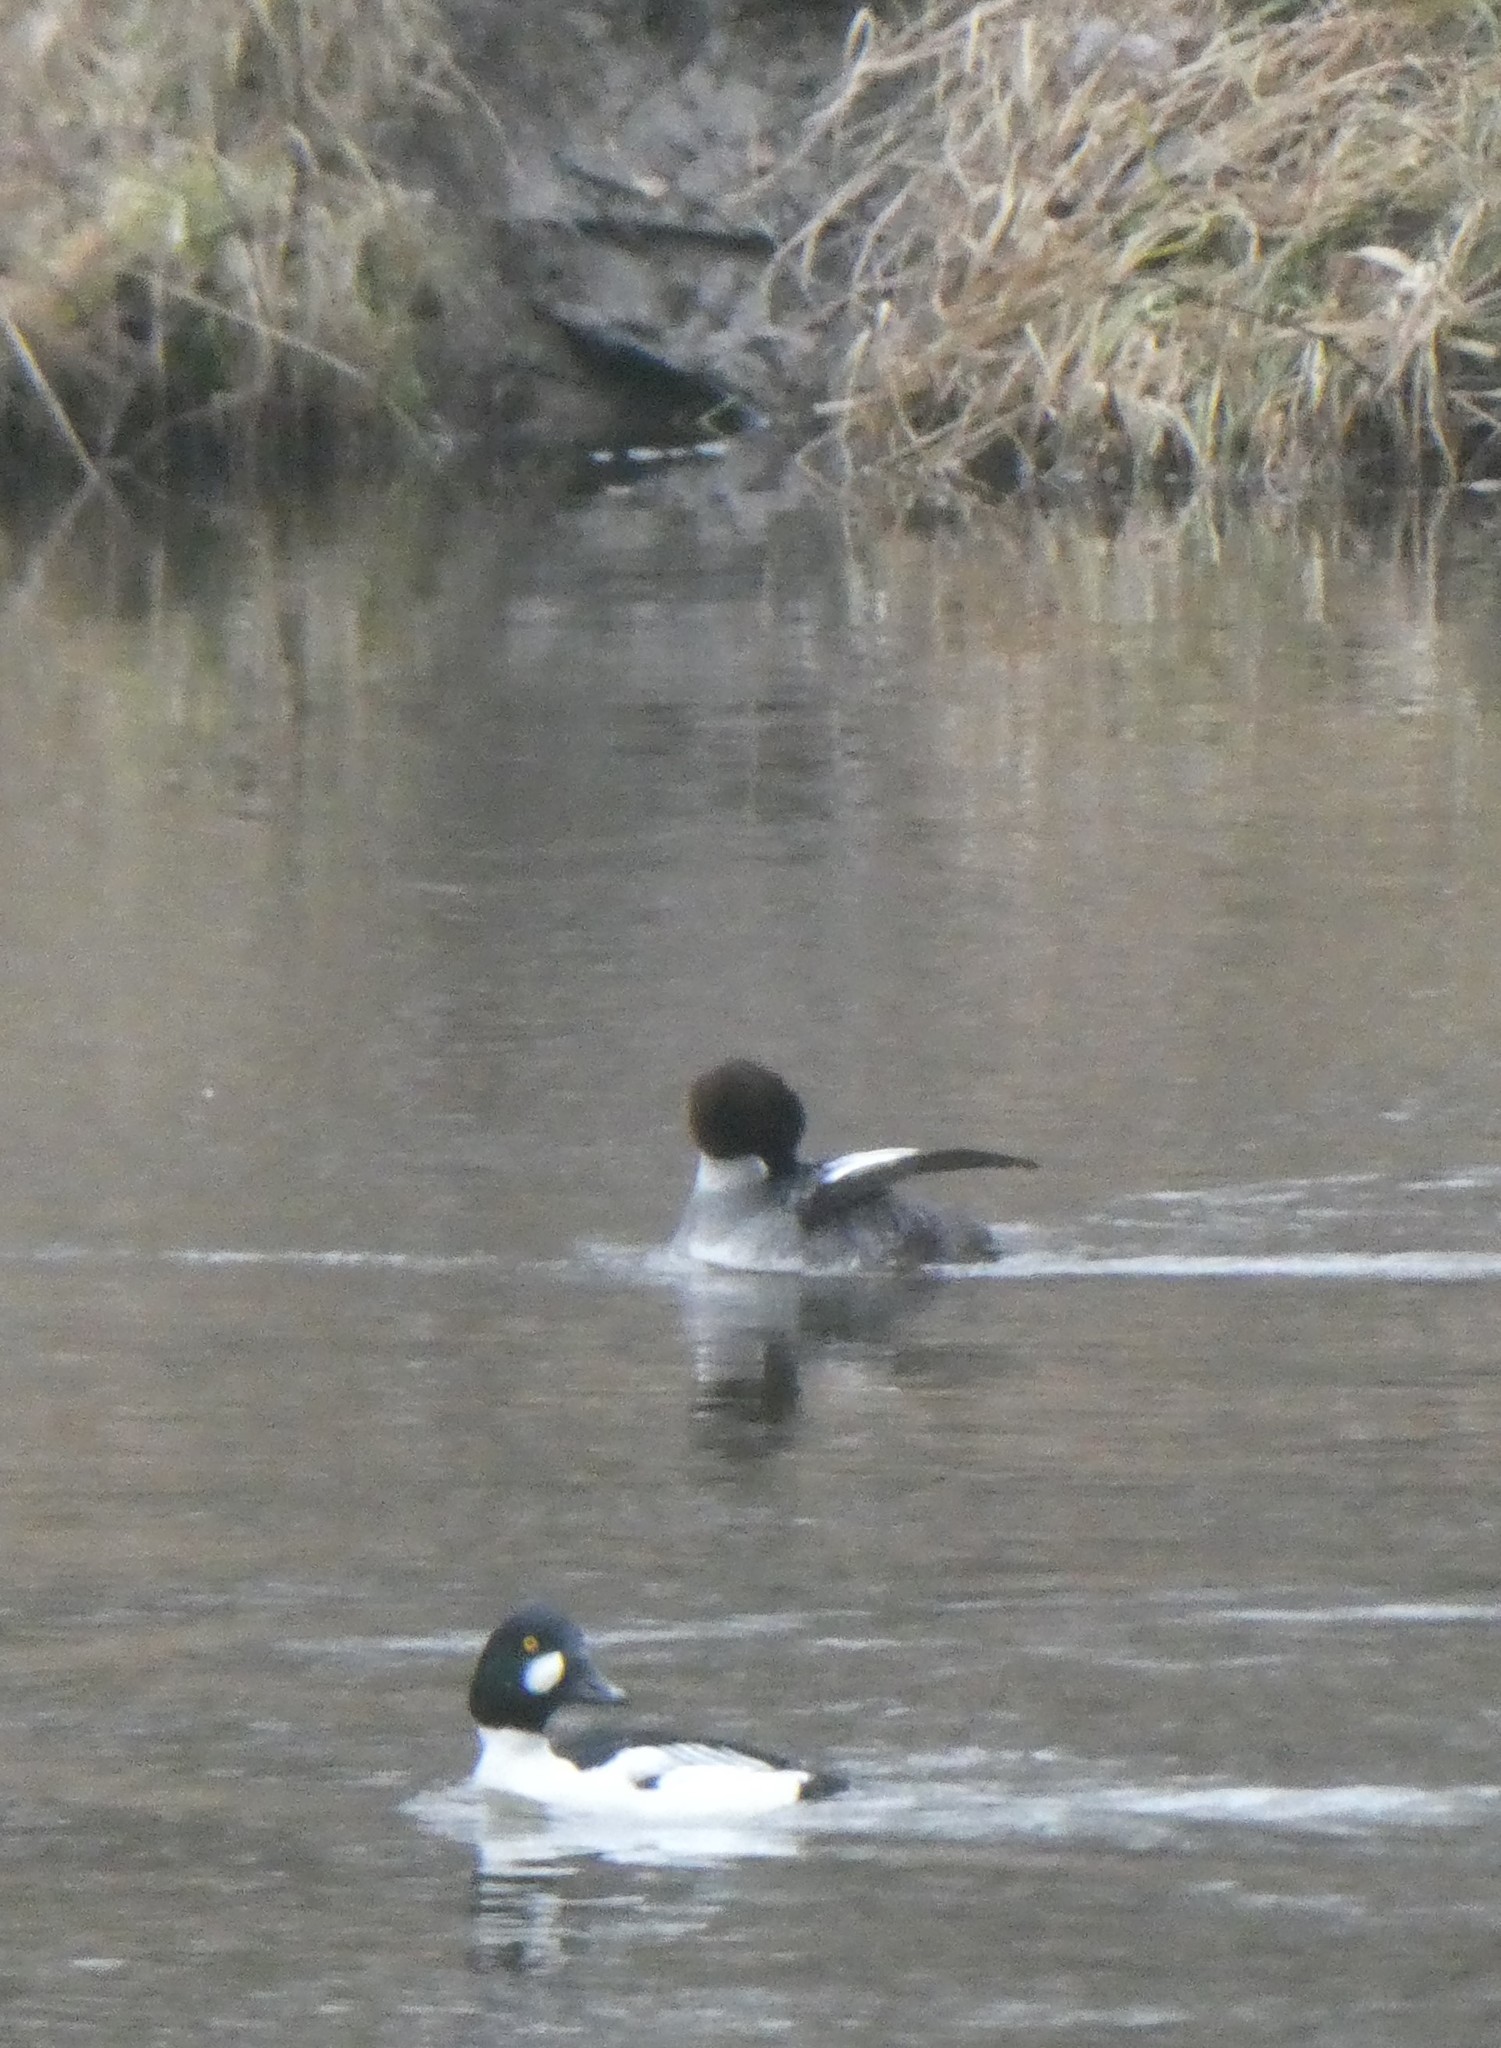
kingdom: Animalia
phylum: Chordata
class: Aves
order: Anseriformes
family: Anatidae
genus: Bucephala
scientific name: Bucephala clangula
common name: Common goldeneye
